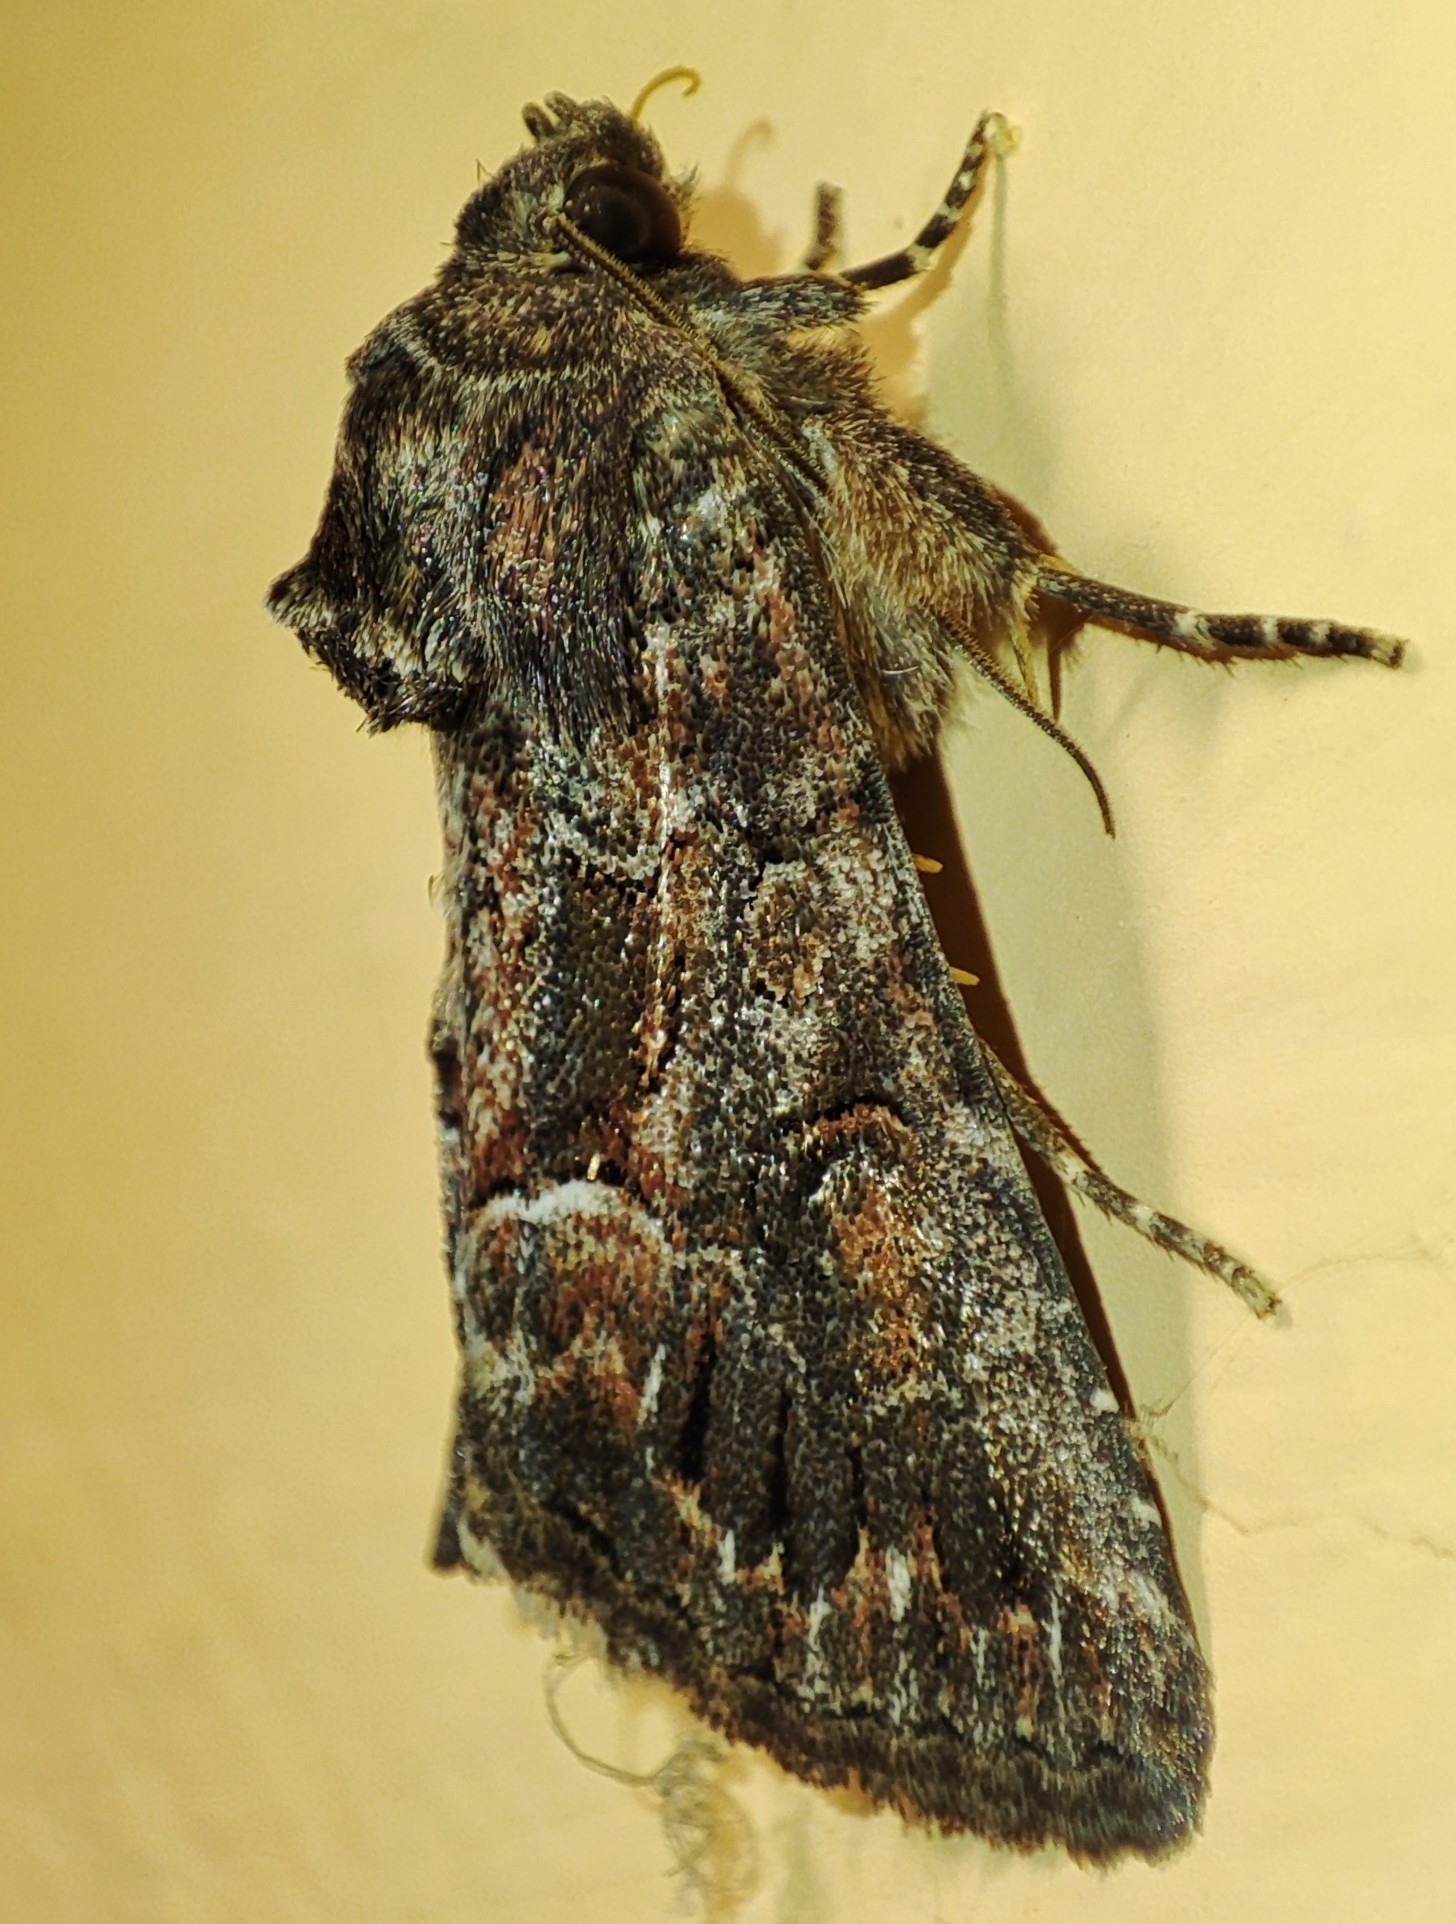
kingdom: Animalia
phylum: Arthropoda
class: Insecta
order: Lepidoptera
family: Noctuidae
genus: Thalpophila
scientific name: Thalpophila matura
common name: Straw underwing
